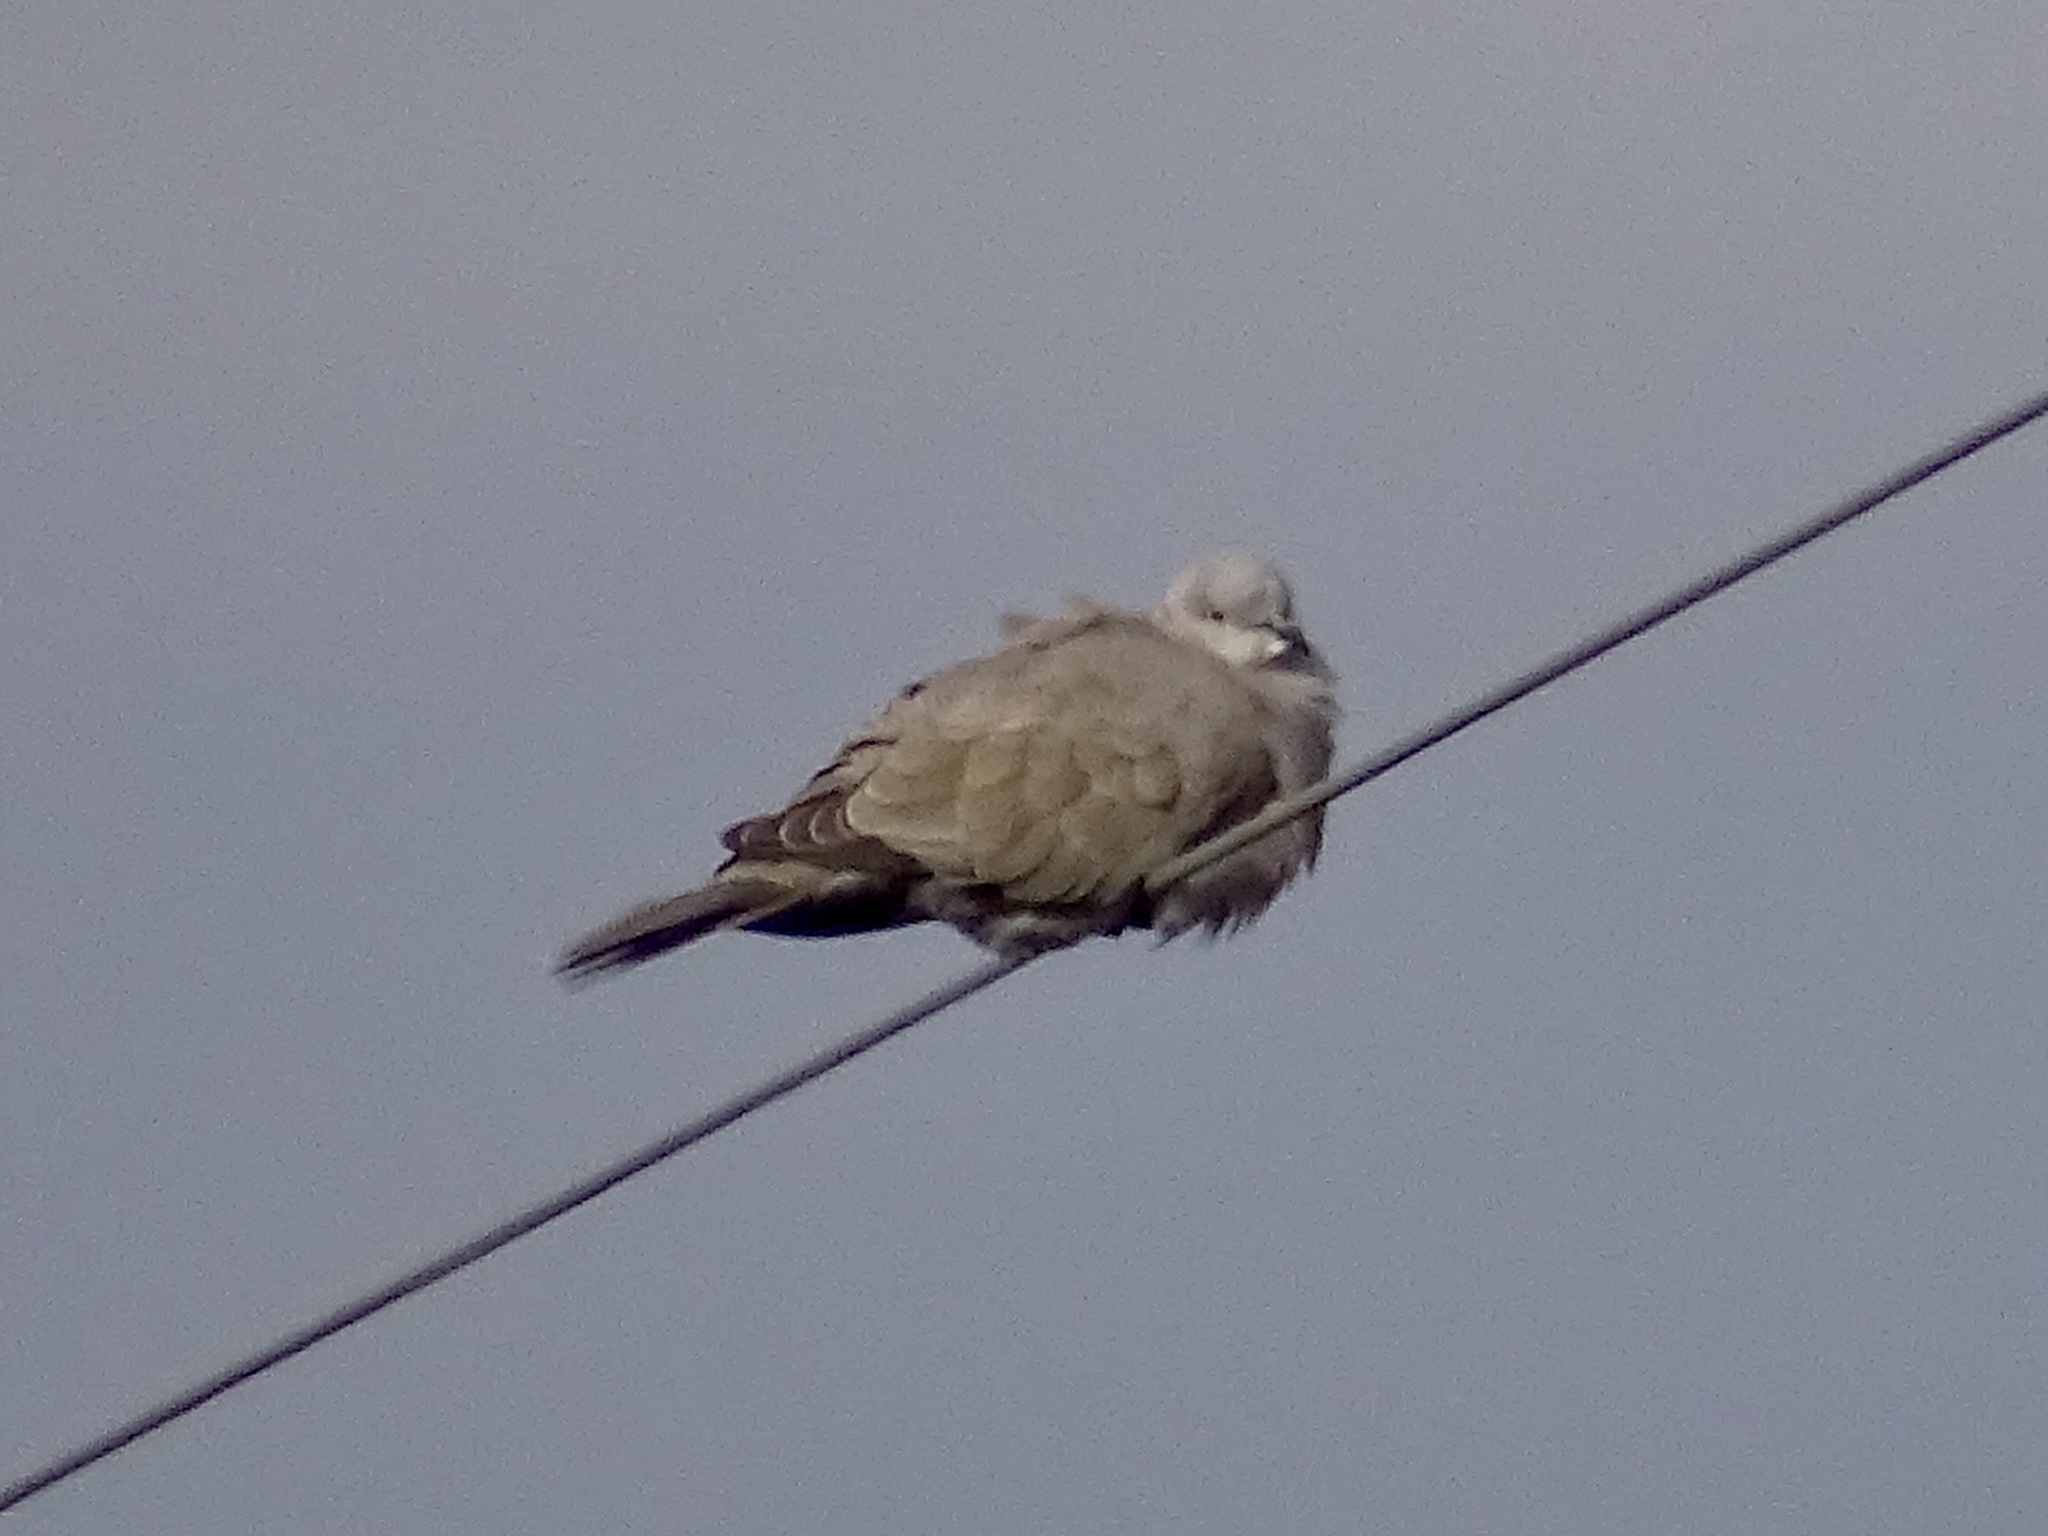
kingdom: Animalia
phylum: Chordata
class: Aves
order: Columbiformes
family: Columbidae
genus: Streptopelia
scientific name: Streptopelia decaocto
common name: Eurasian collared dove
